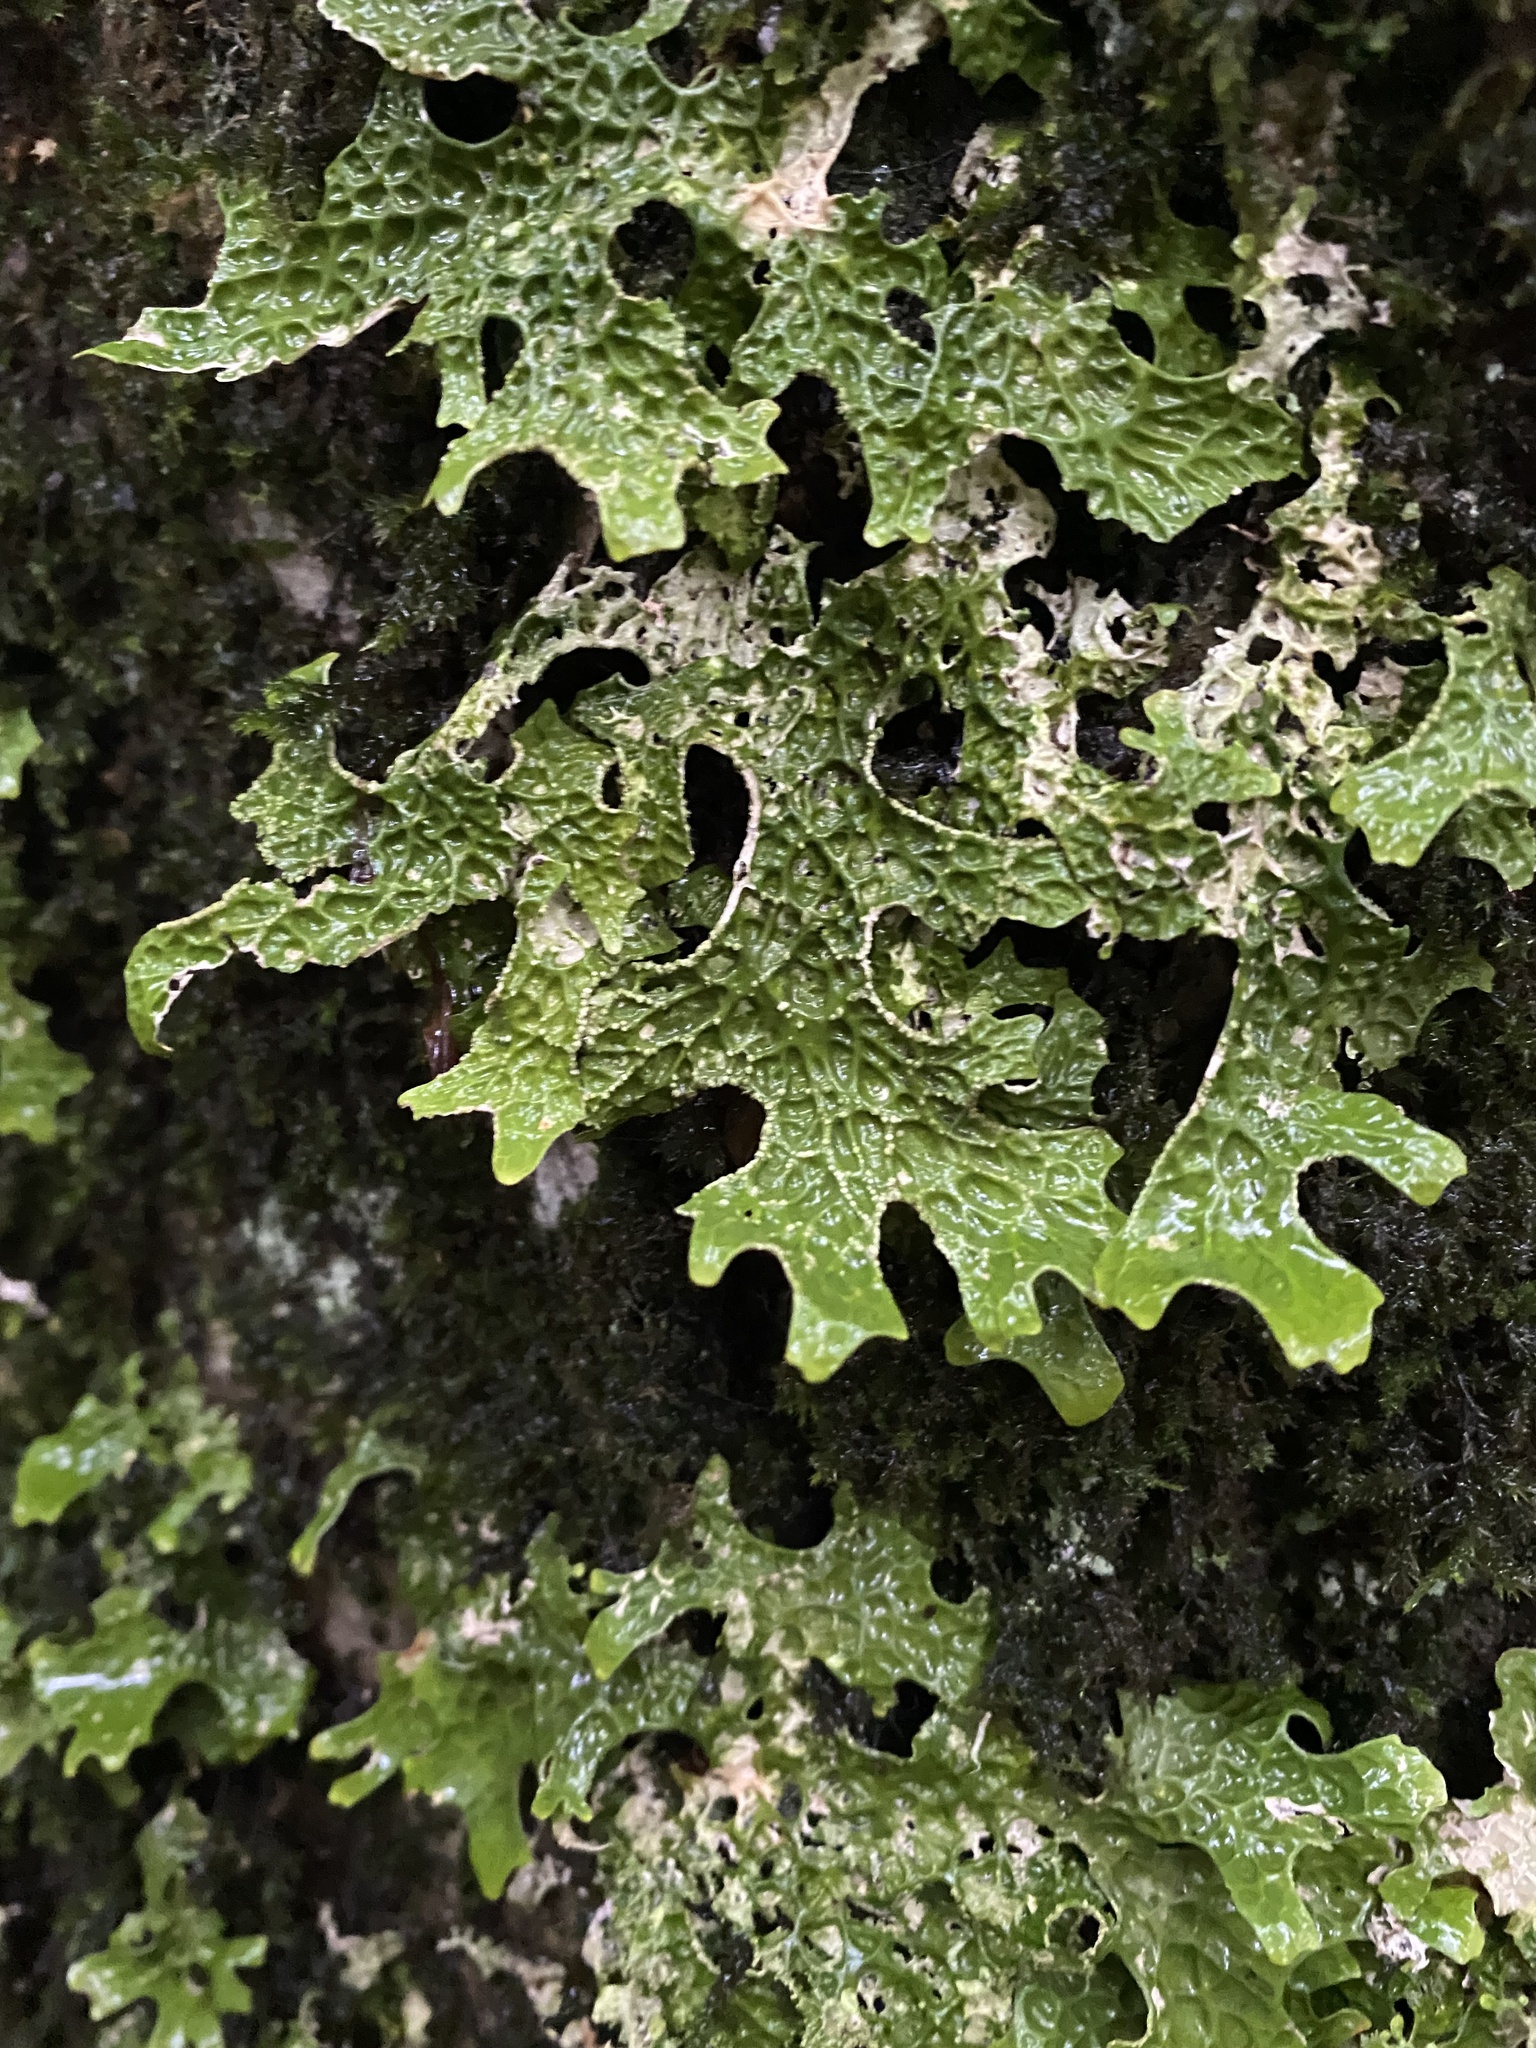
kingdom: Fungi
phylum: Ascomycota
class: Lecanoromycetes
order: Peltigerales
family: Lobariaceae
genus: Lobaria
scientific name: Lobaria pulmonaria
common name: Lungwort
